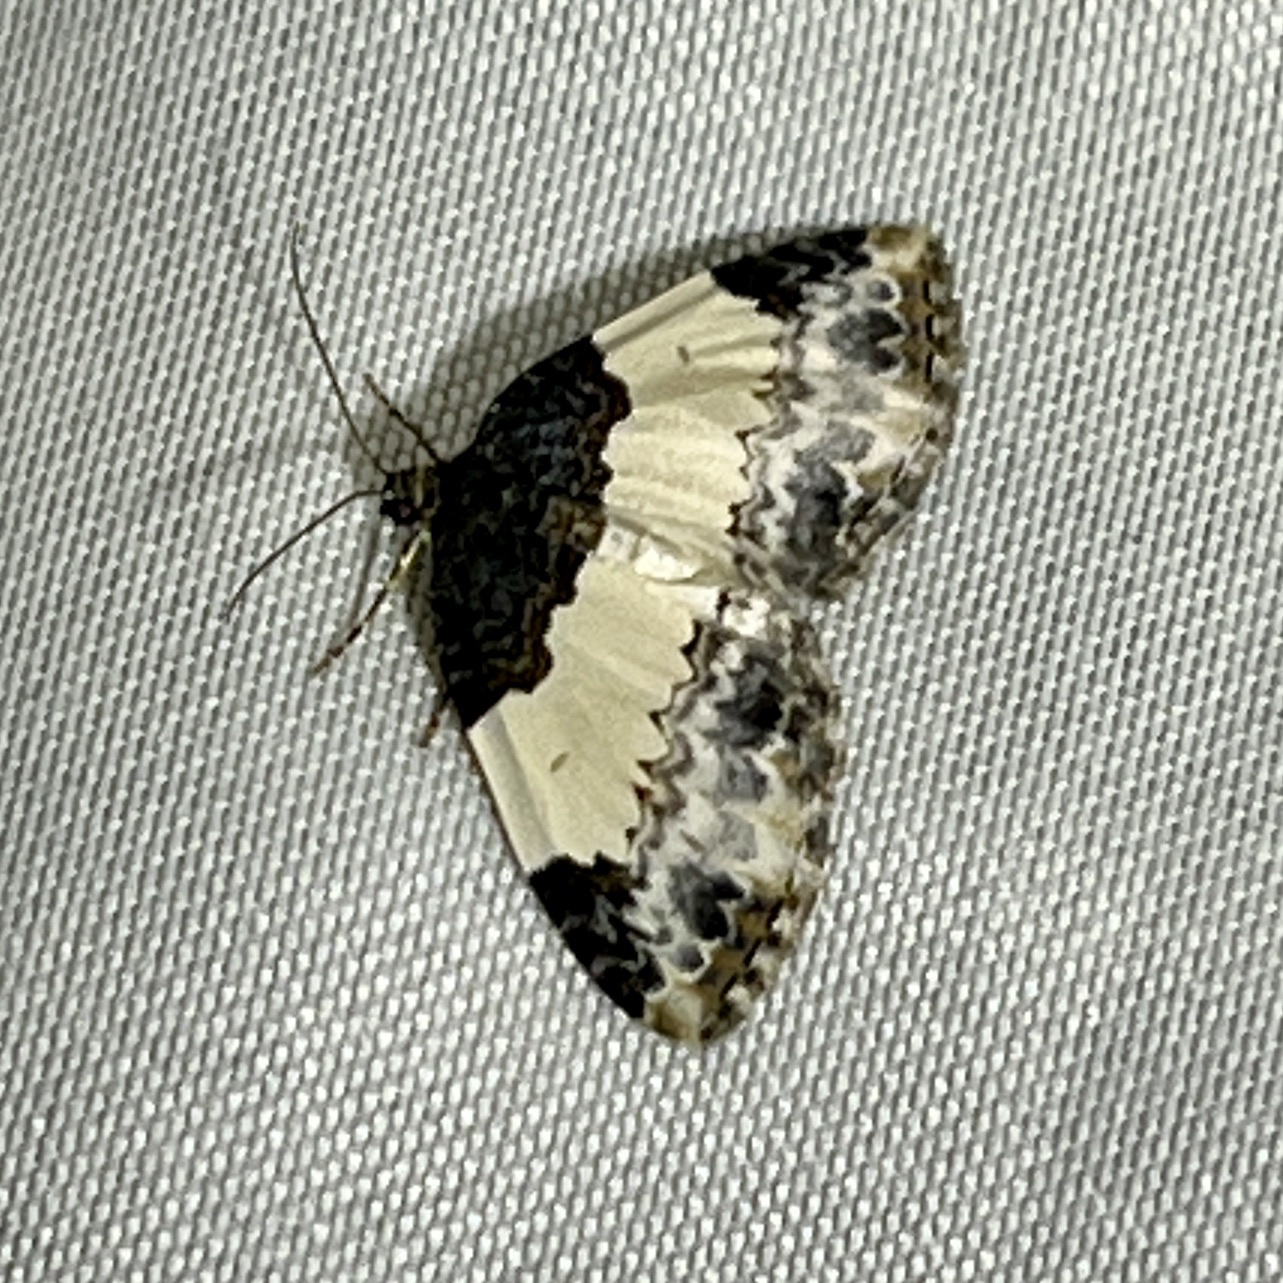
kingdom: Animalia
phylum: Arthropoda
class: Insecta
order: Lepidoptera
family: Geometridae
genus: Mesoleuca
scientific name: Mesoleuca ruficillata
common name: White-ribboned carpet moth
